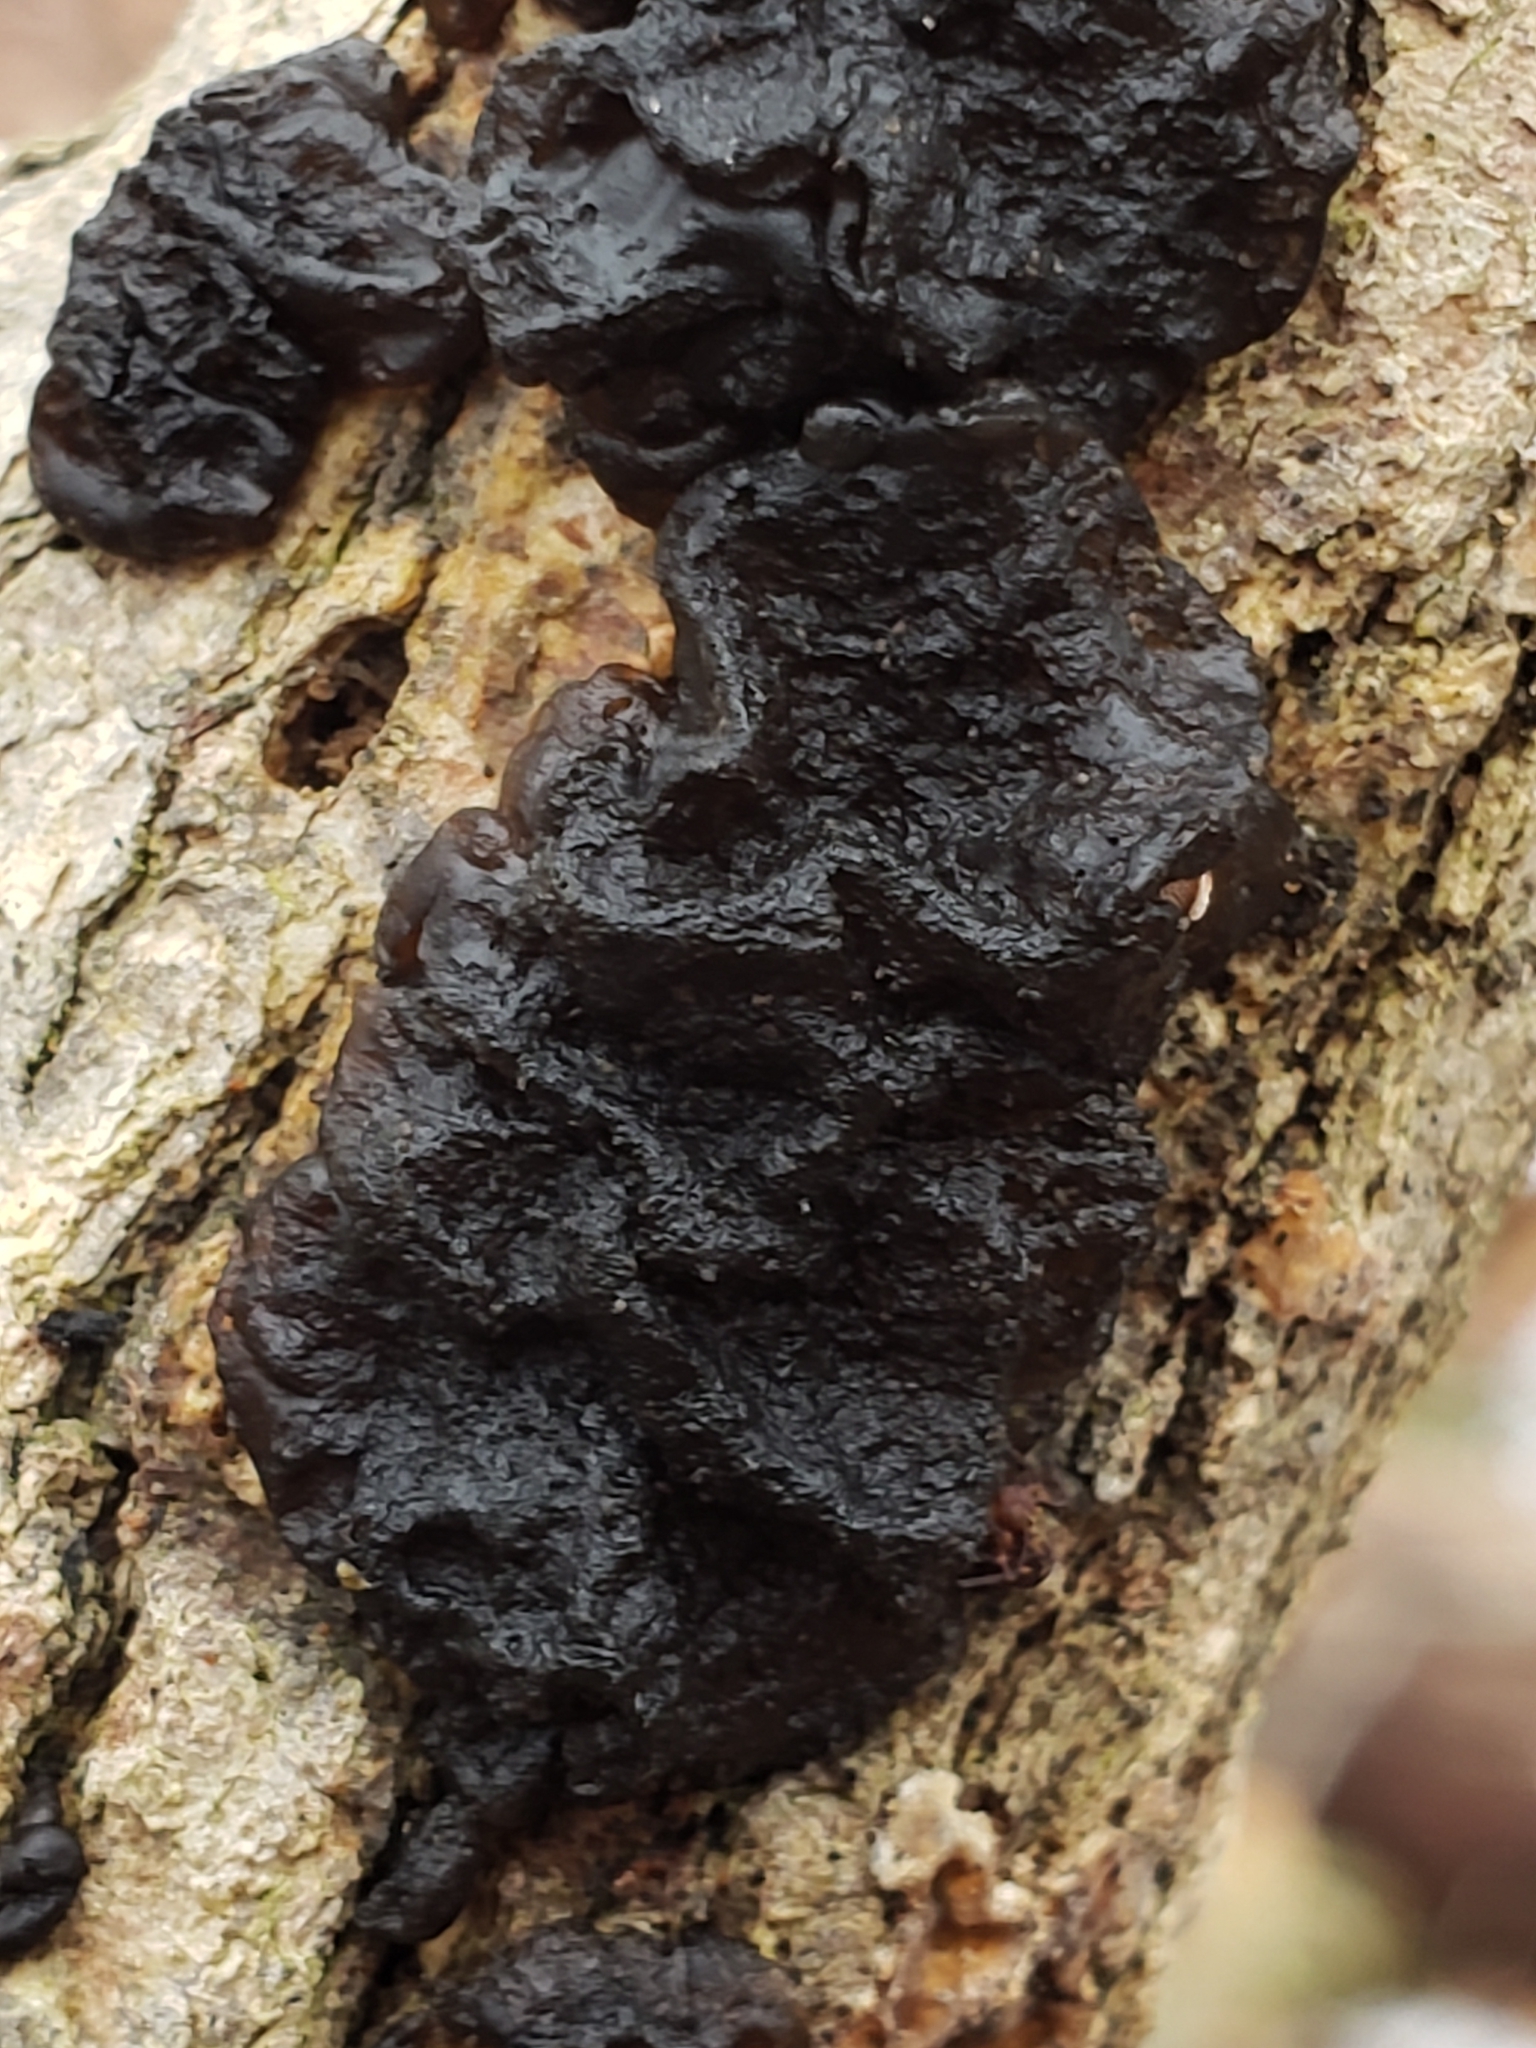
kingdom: Fungi
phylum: Basidiomycota
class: Agaricomycetes
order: Auriculariales
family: Auriculariaceae
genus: Exidia
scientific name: Exidia glandulosa
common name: Witches' butter
